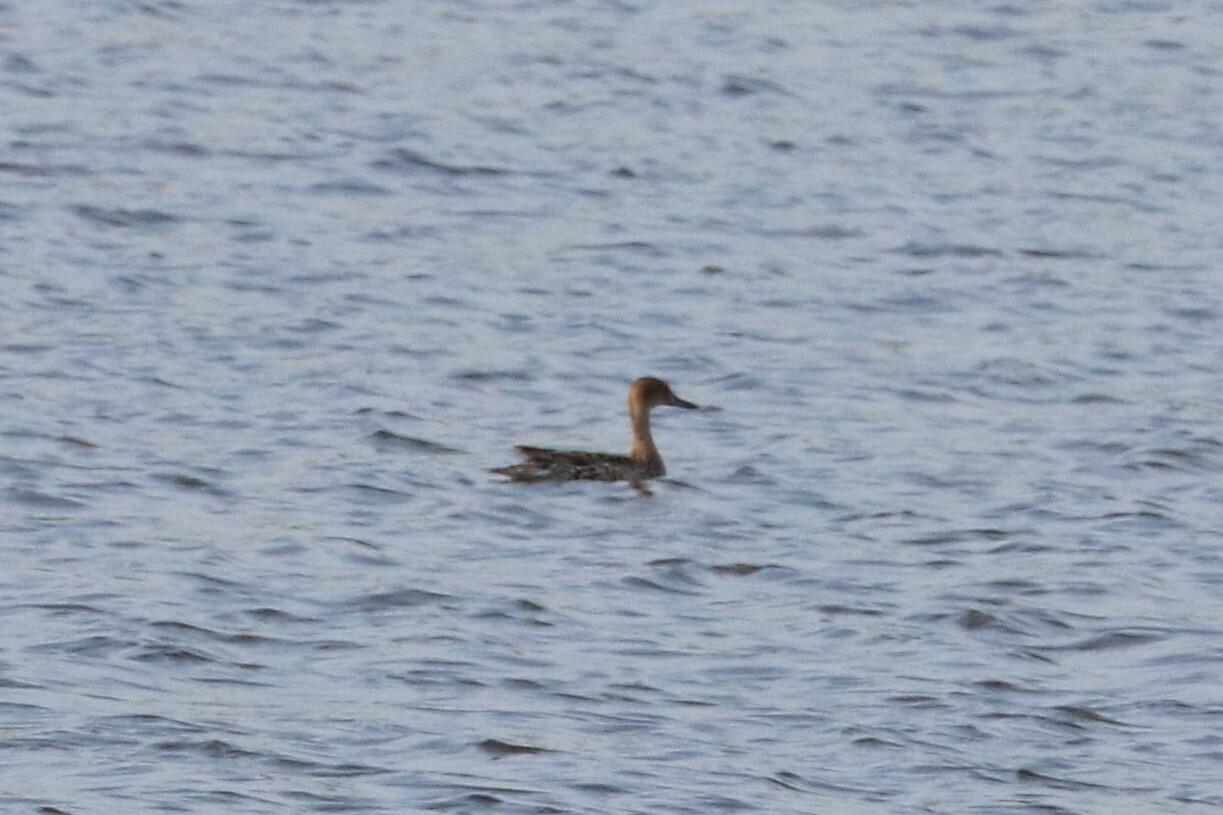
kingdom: Animalia
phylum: Chordata
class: Aves
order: Anseriformes
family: Anatidae
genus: Anas
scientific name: Anas acuta
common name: Northern pintail
